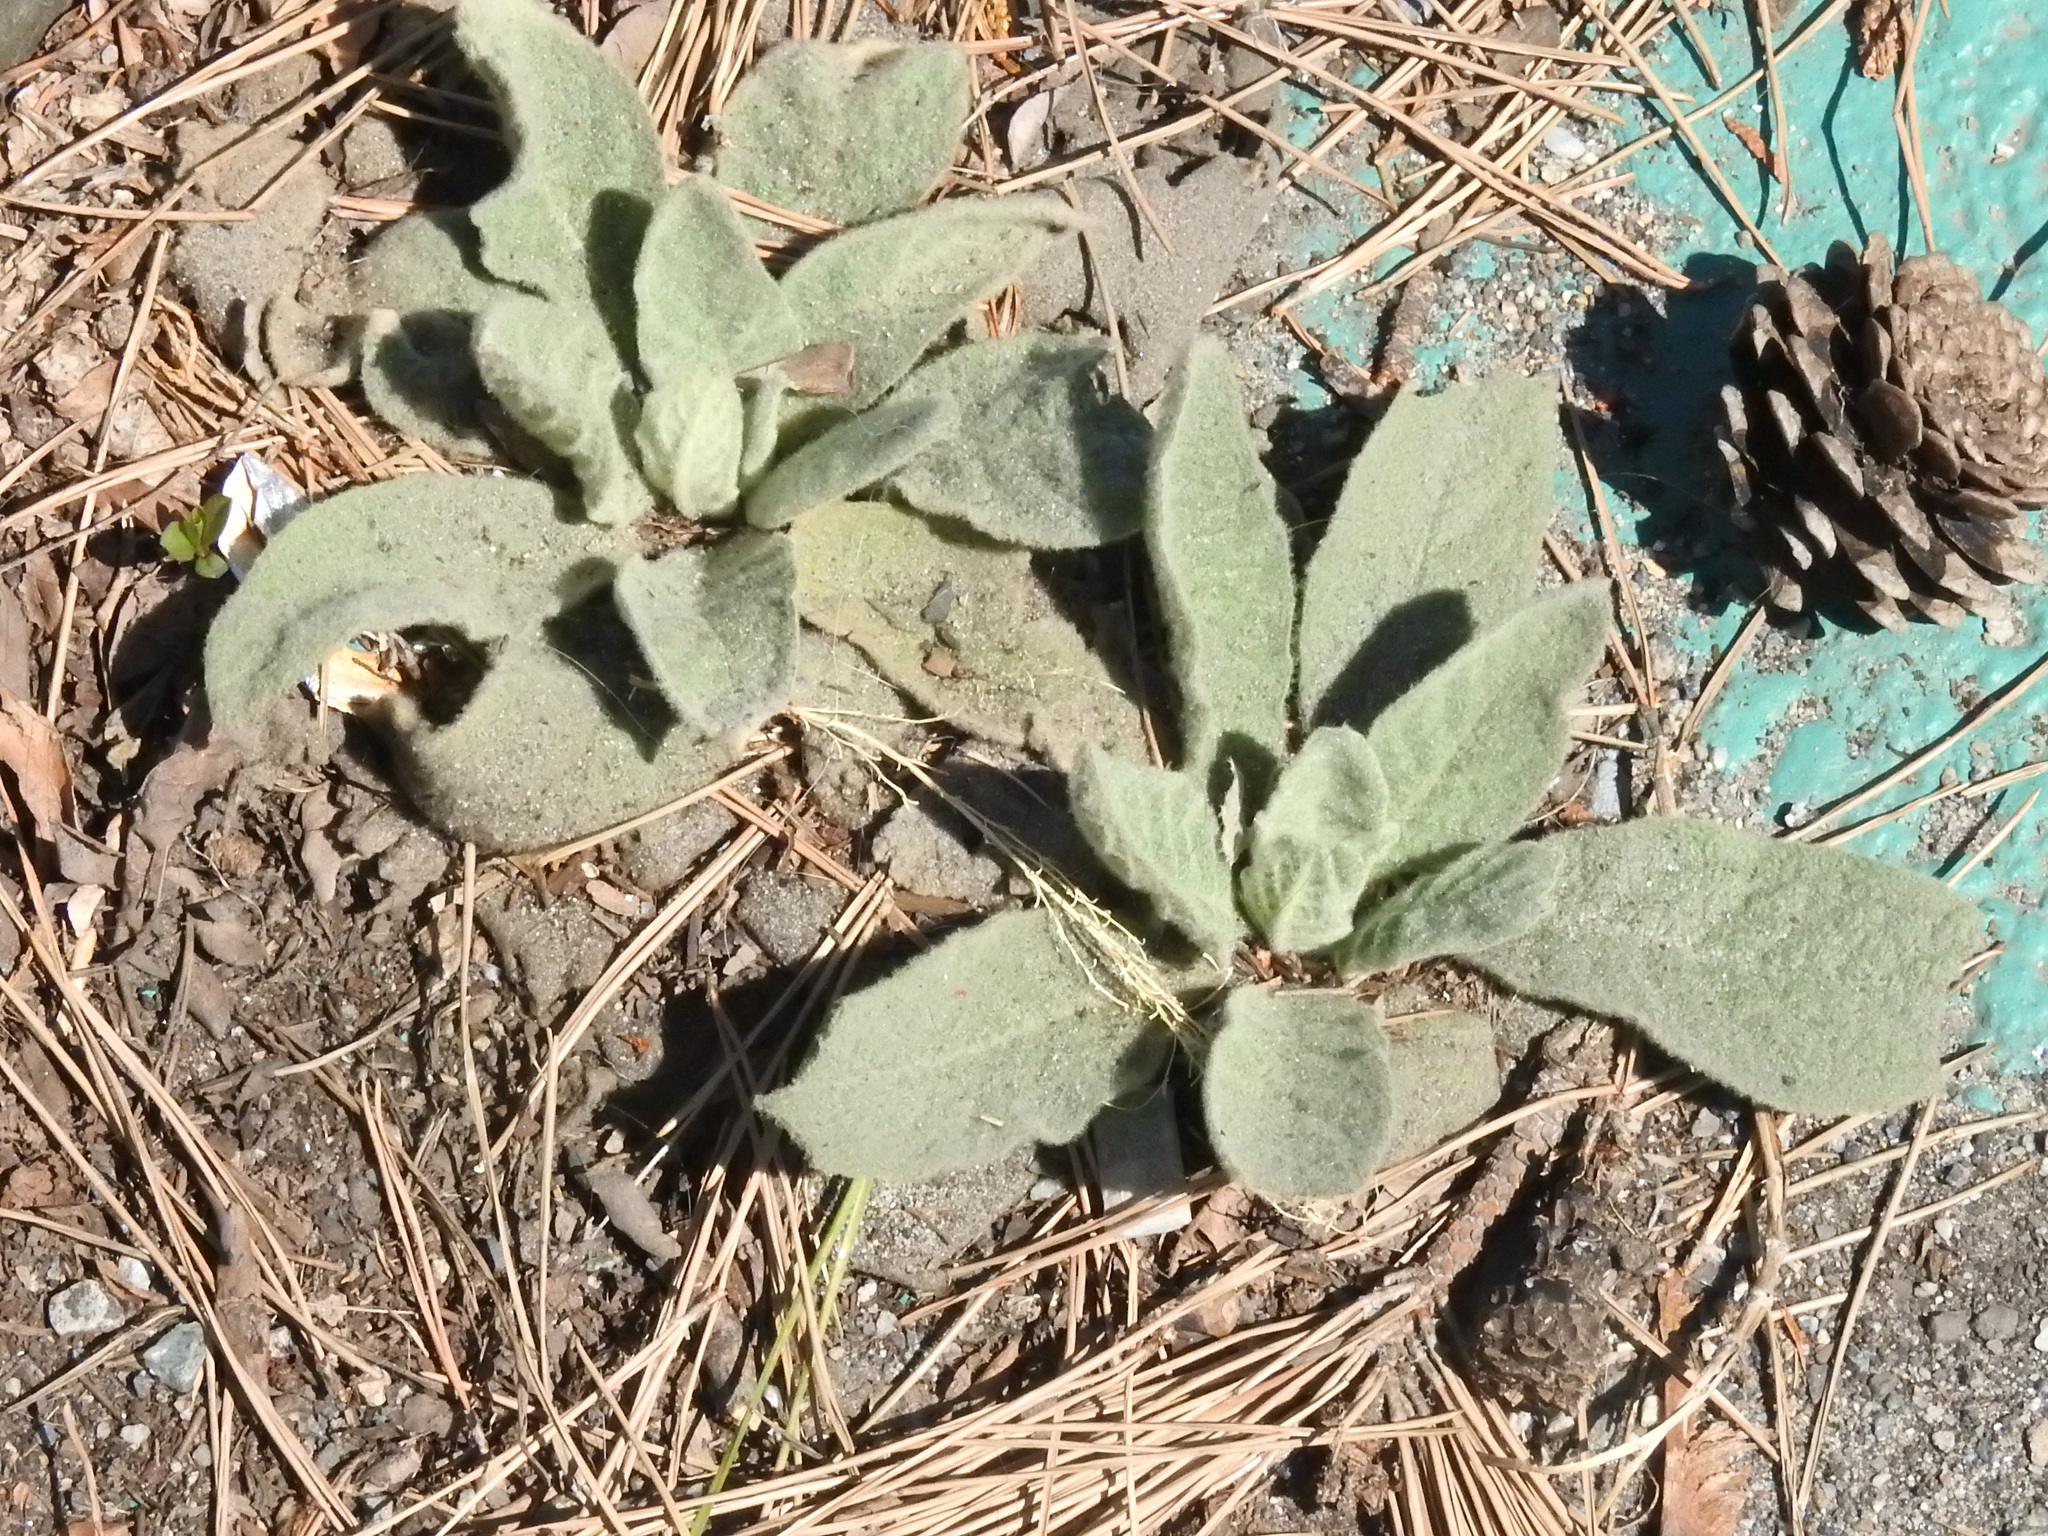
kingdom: Plantae
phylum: Tracheophyta
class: Magnoliopsida
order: Lamiales
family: Scrophulariaceae
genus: Verbascum
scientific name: Verbascum thapsus
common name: Common mullein
